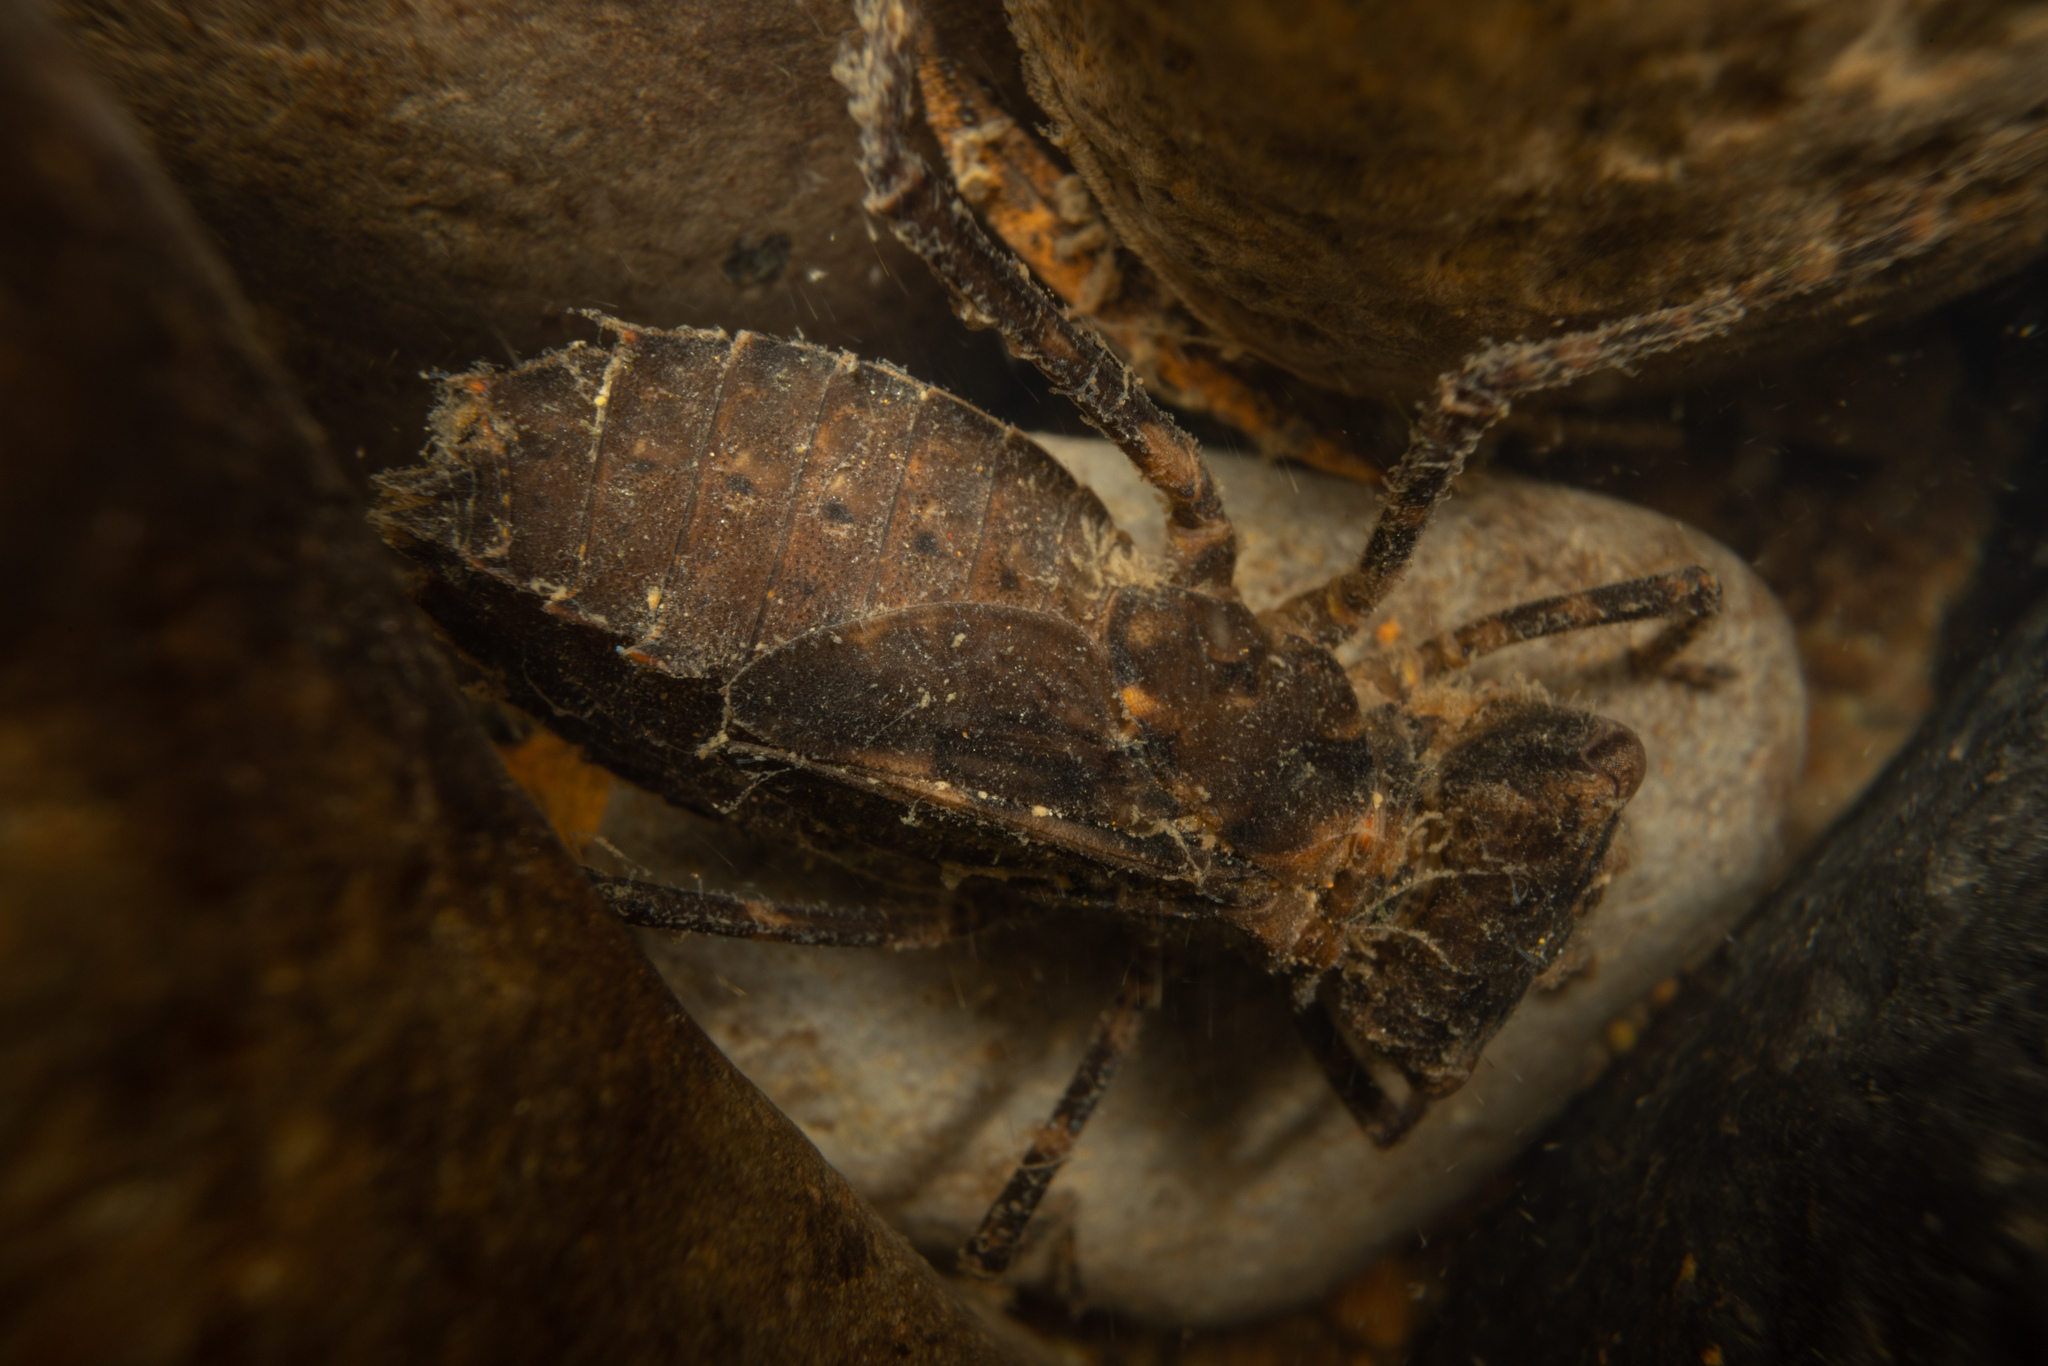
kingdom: Animalia
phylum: Arthropoda
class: Insecta
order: Odonata
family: Corduliidae
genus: Antipodochlora
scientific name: Antipodochlora braueri
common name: Dusk dragonfly
